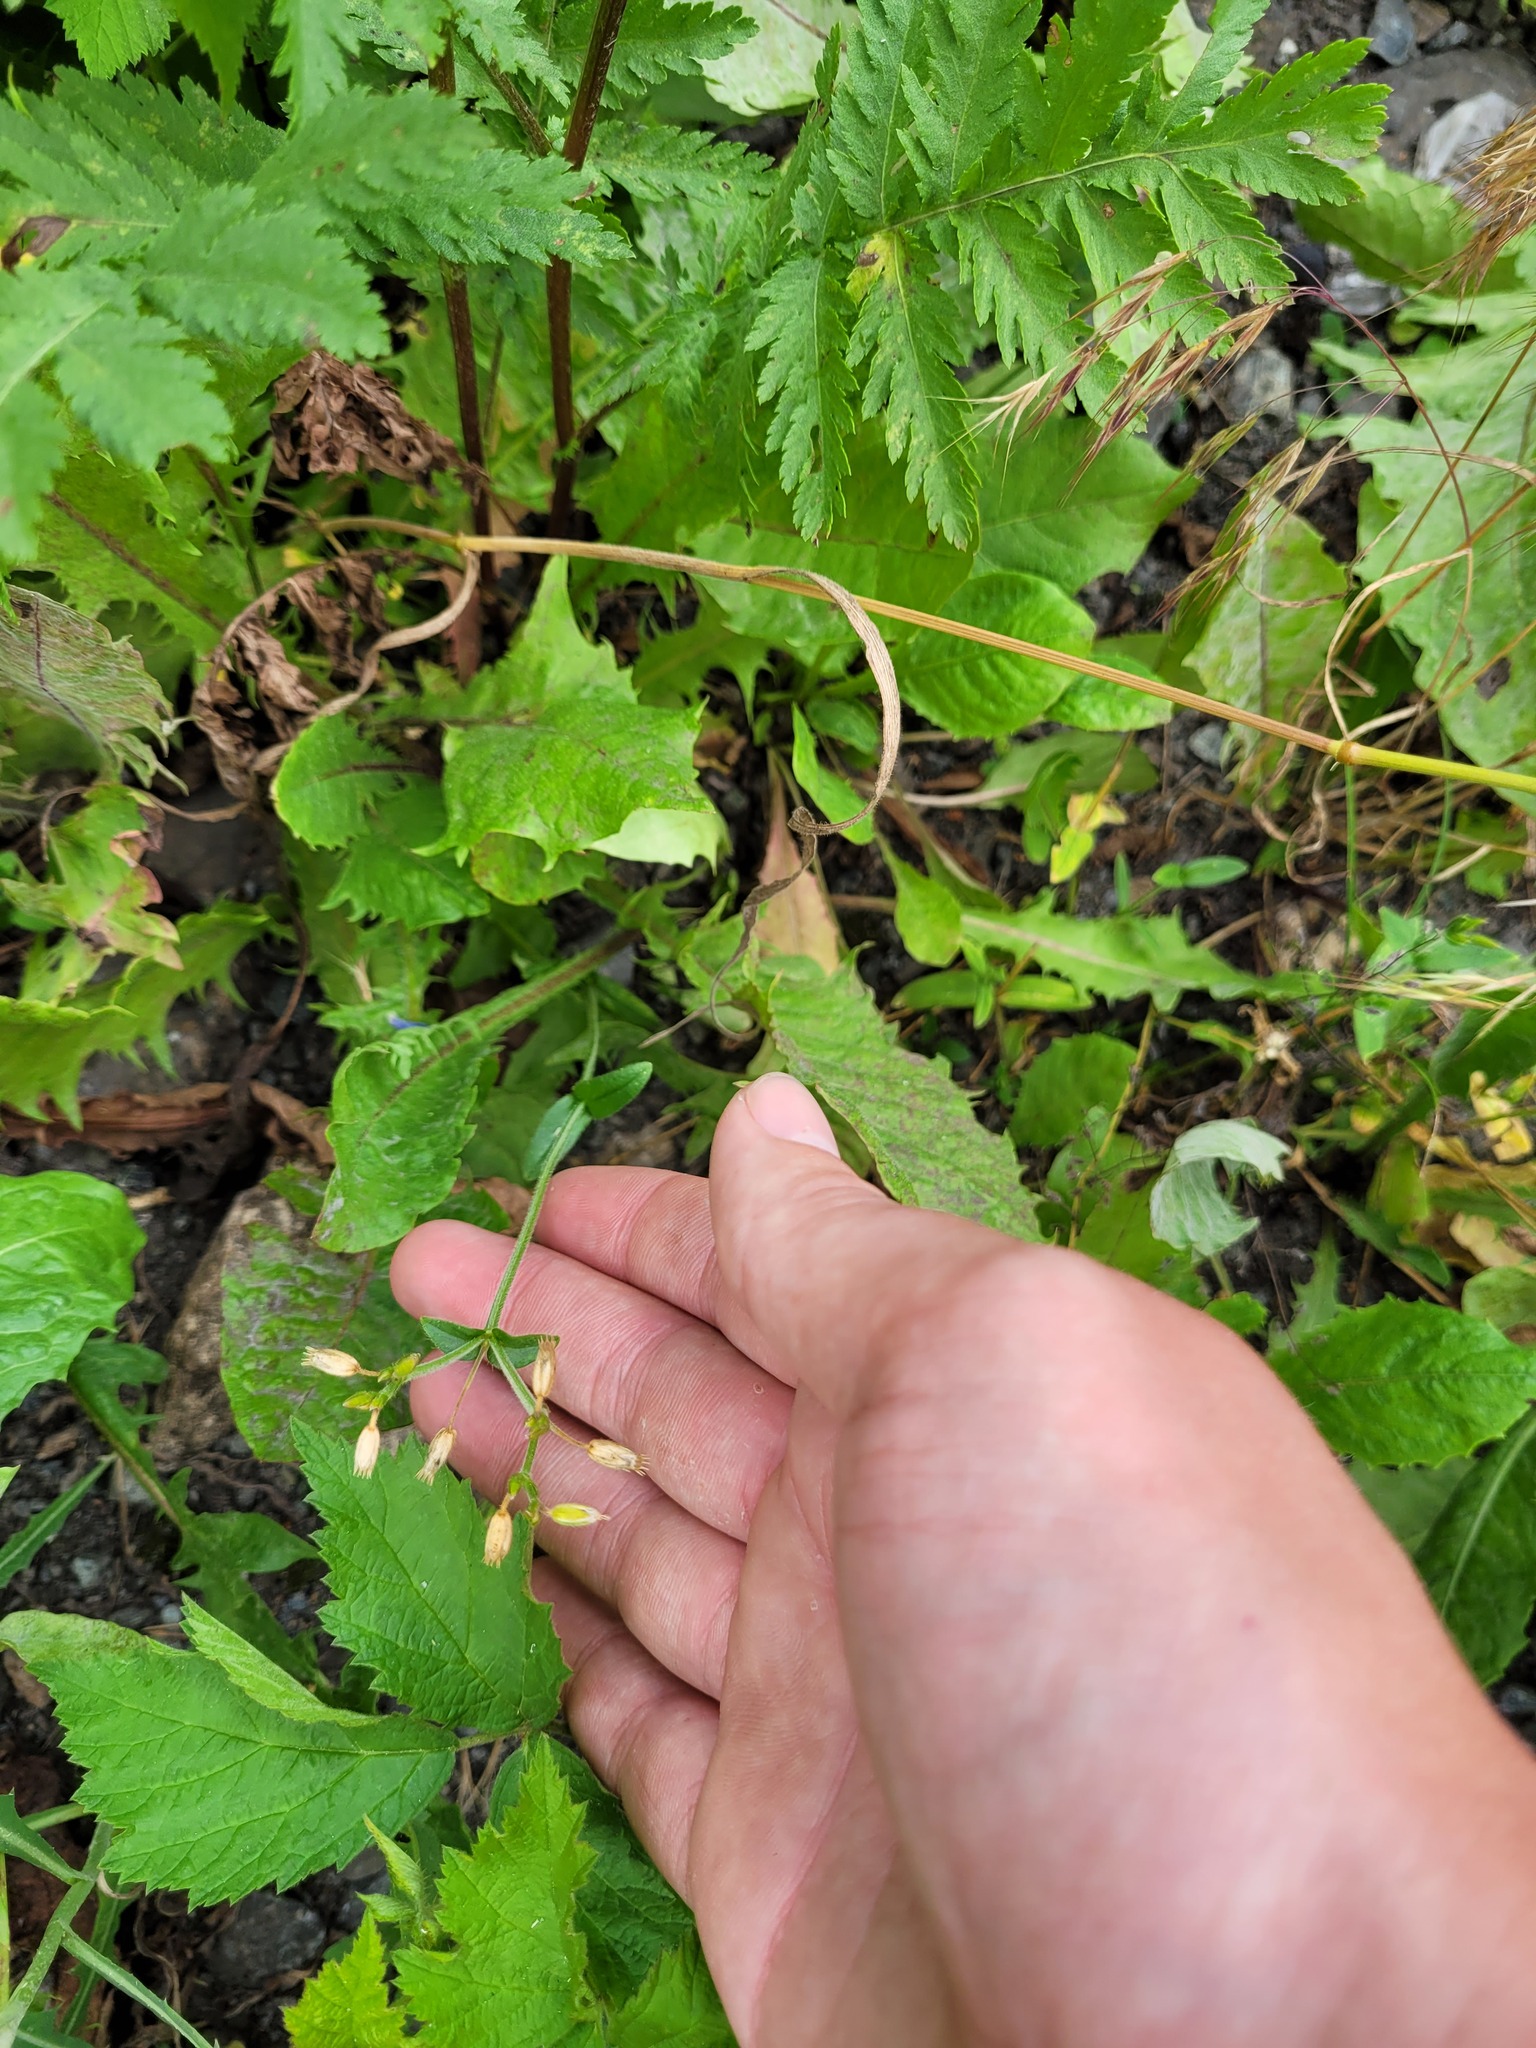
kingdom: Plantae
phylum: Tracheophyta
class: Magnoliopsida
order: Caryophyllales
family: Caryophyllaceae
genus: Cerastium
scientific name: Cerastium holosteoides
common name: Big chickweed
